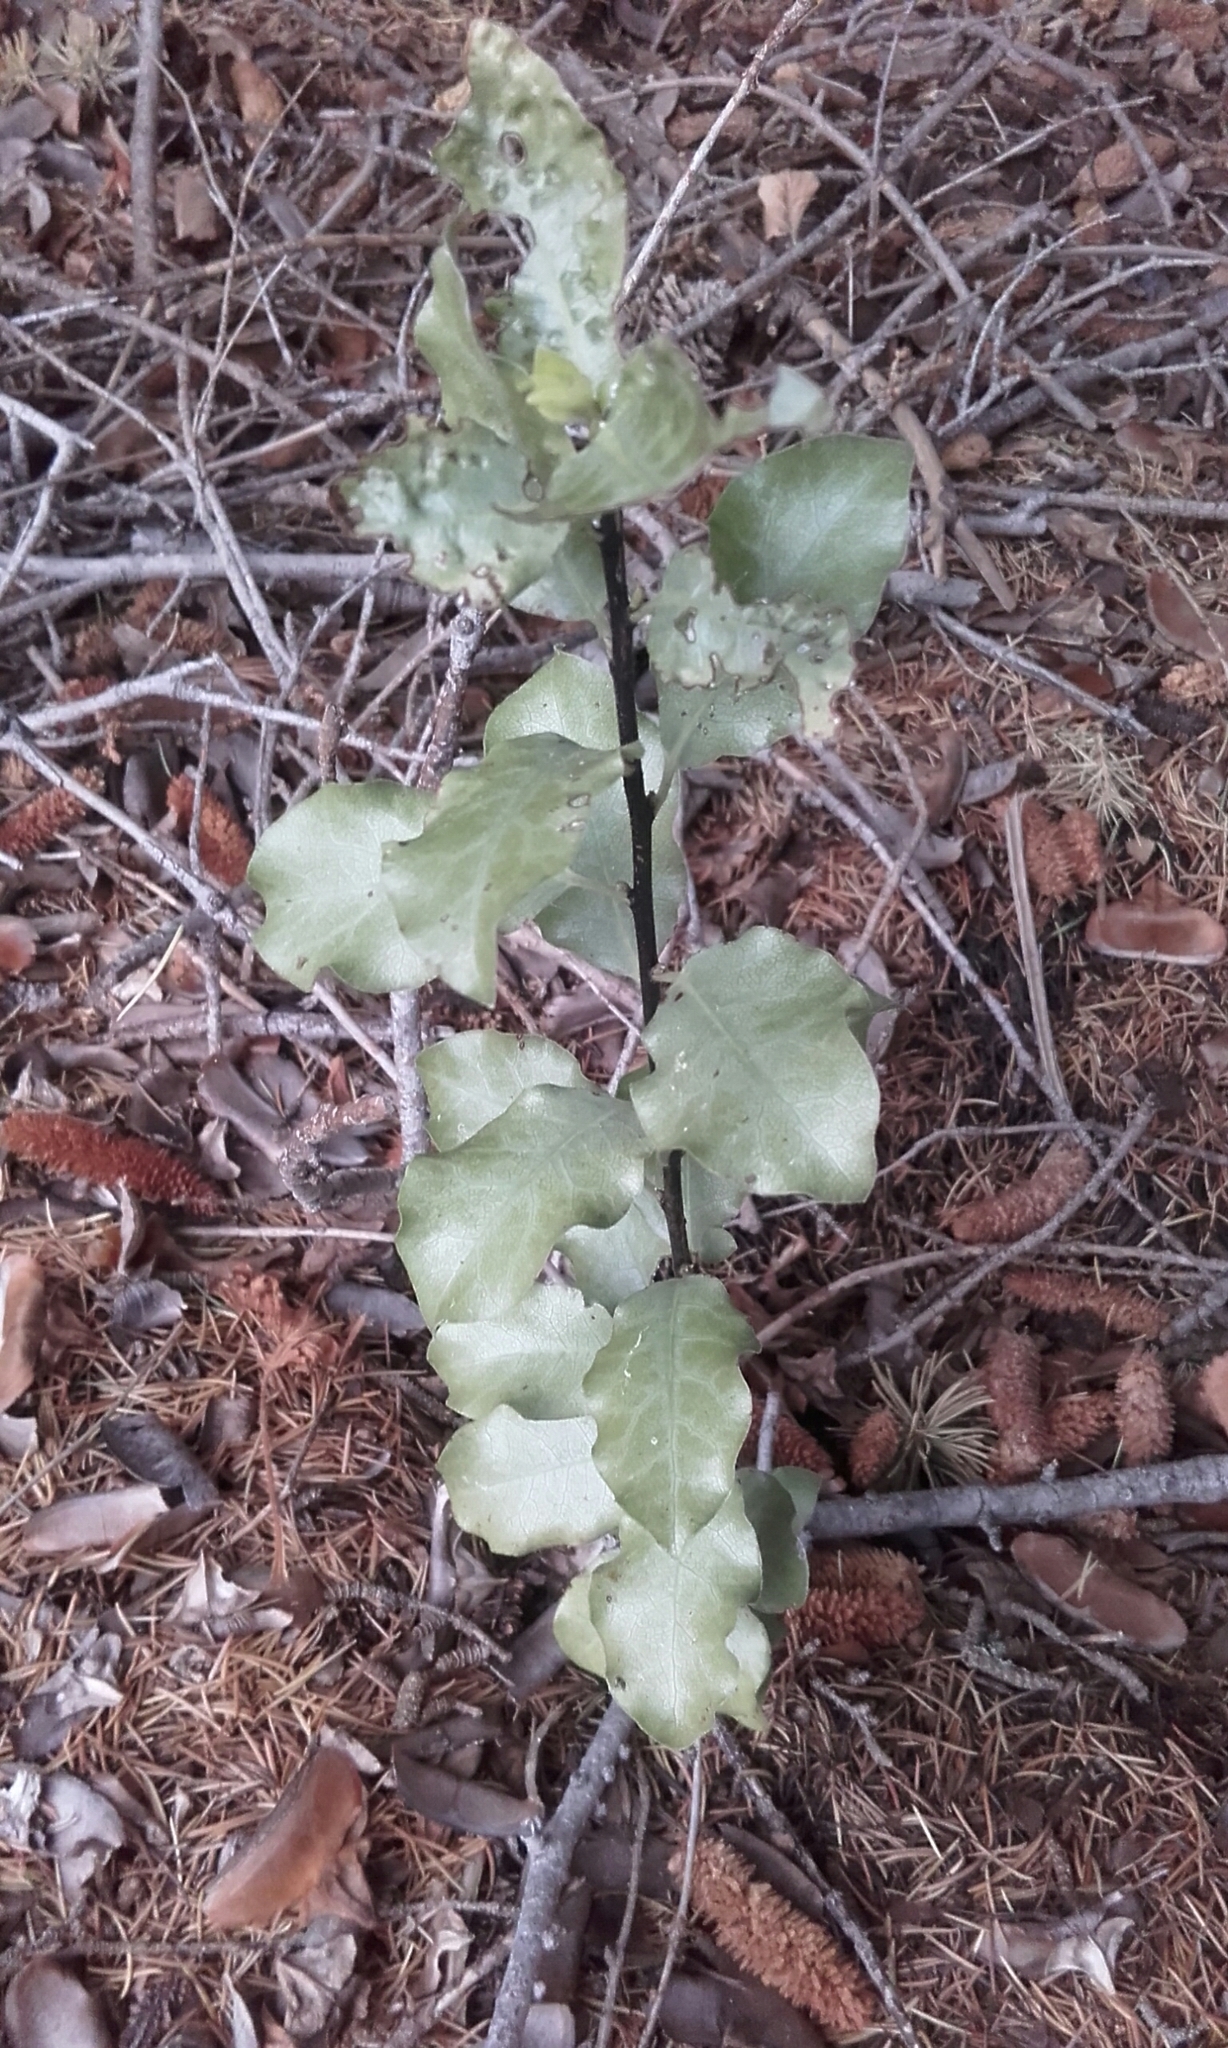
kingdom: Plantae
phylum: Tracheophyta
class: Magnoliopsida
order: Apiales
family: Pittosporaceae
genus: Pittosporum
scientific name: Pittosporum tenuifolium
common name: Kohuhu
